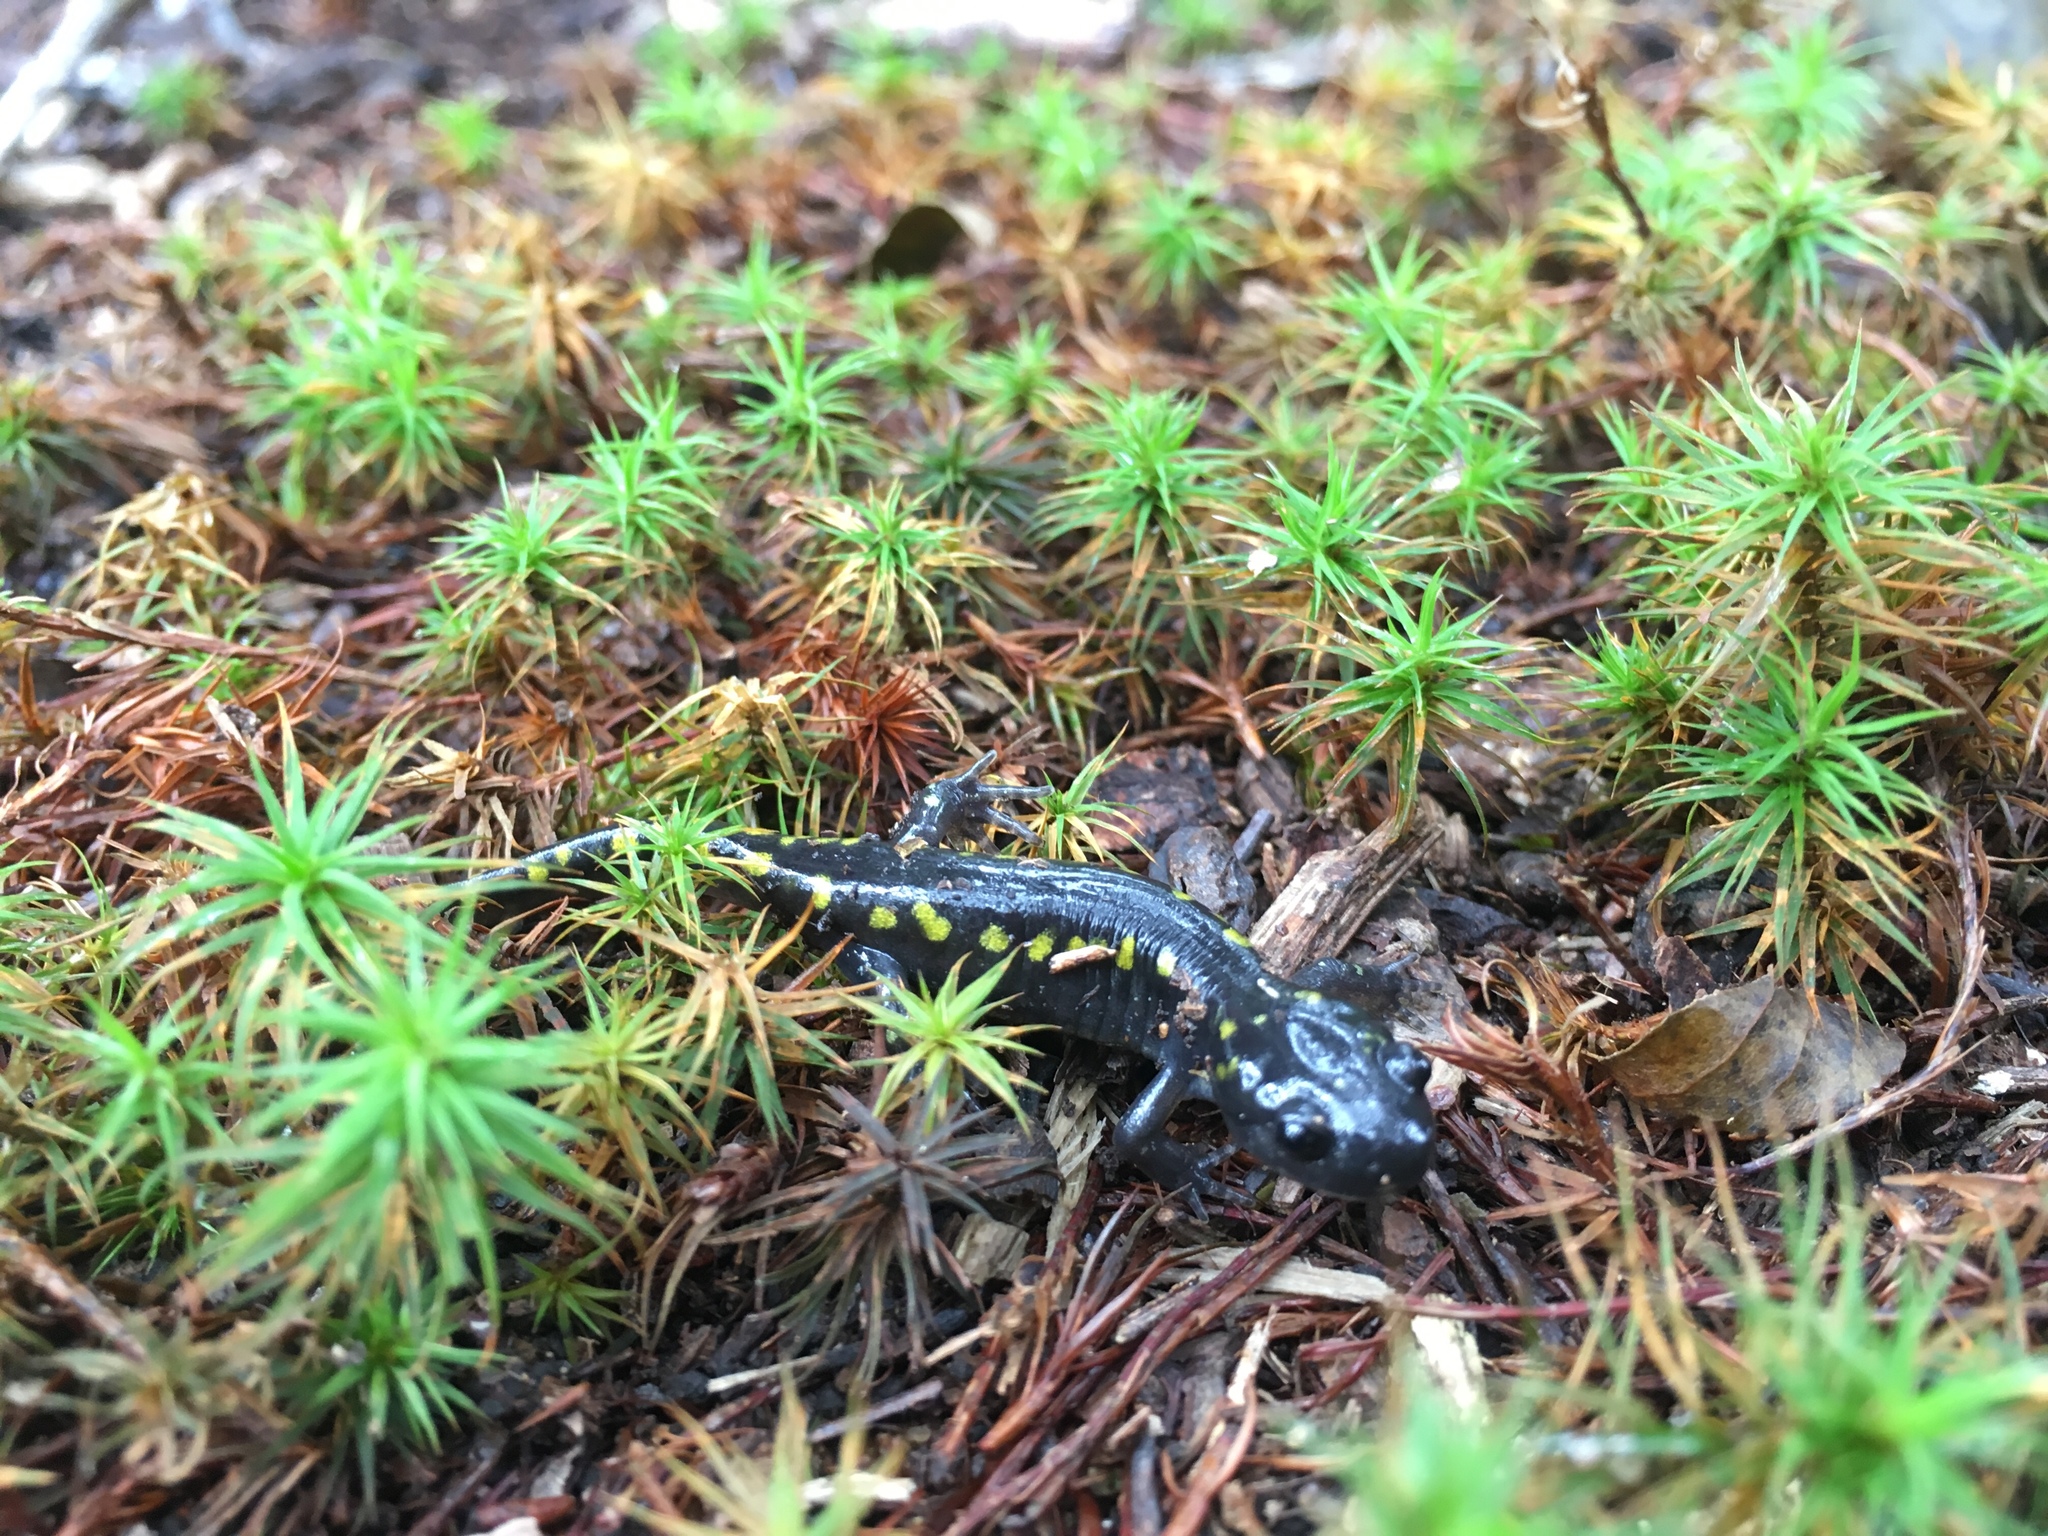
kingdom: Animalia
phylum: Chordata
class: Amphibia
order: Caudata
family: Ambystomatidae
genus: Ambystoma
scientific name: Ambystoma maculatum
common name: Spotted salamander
